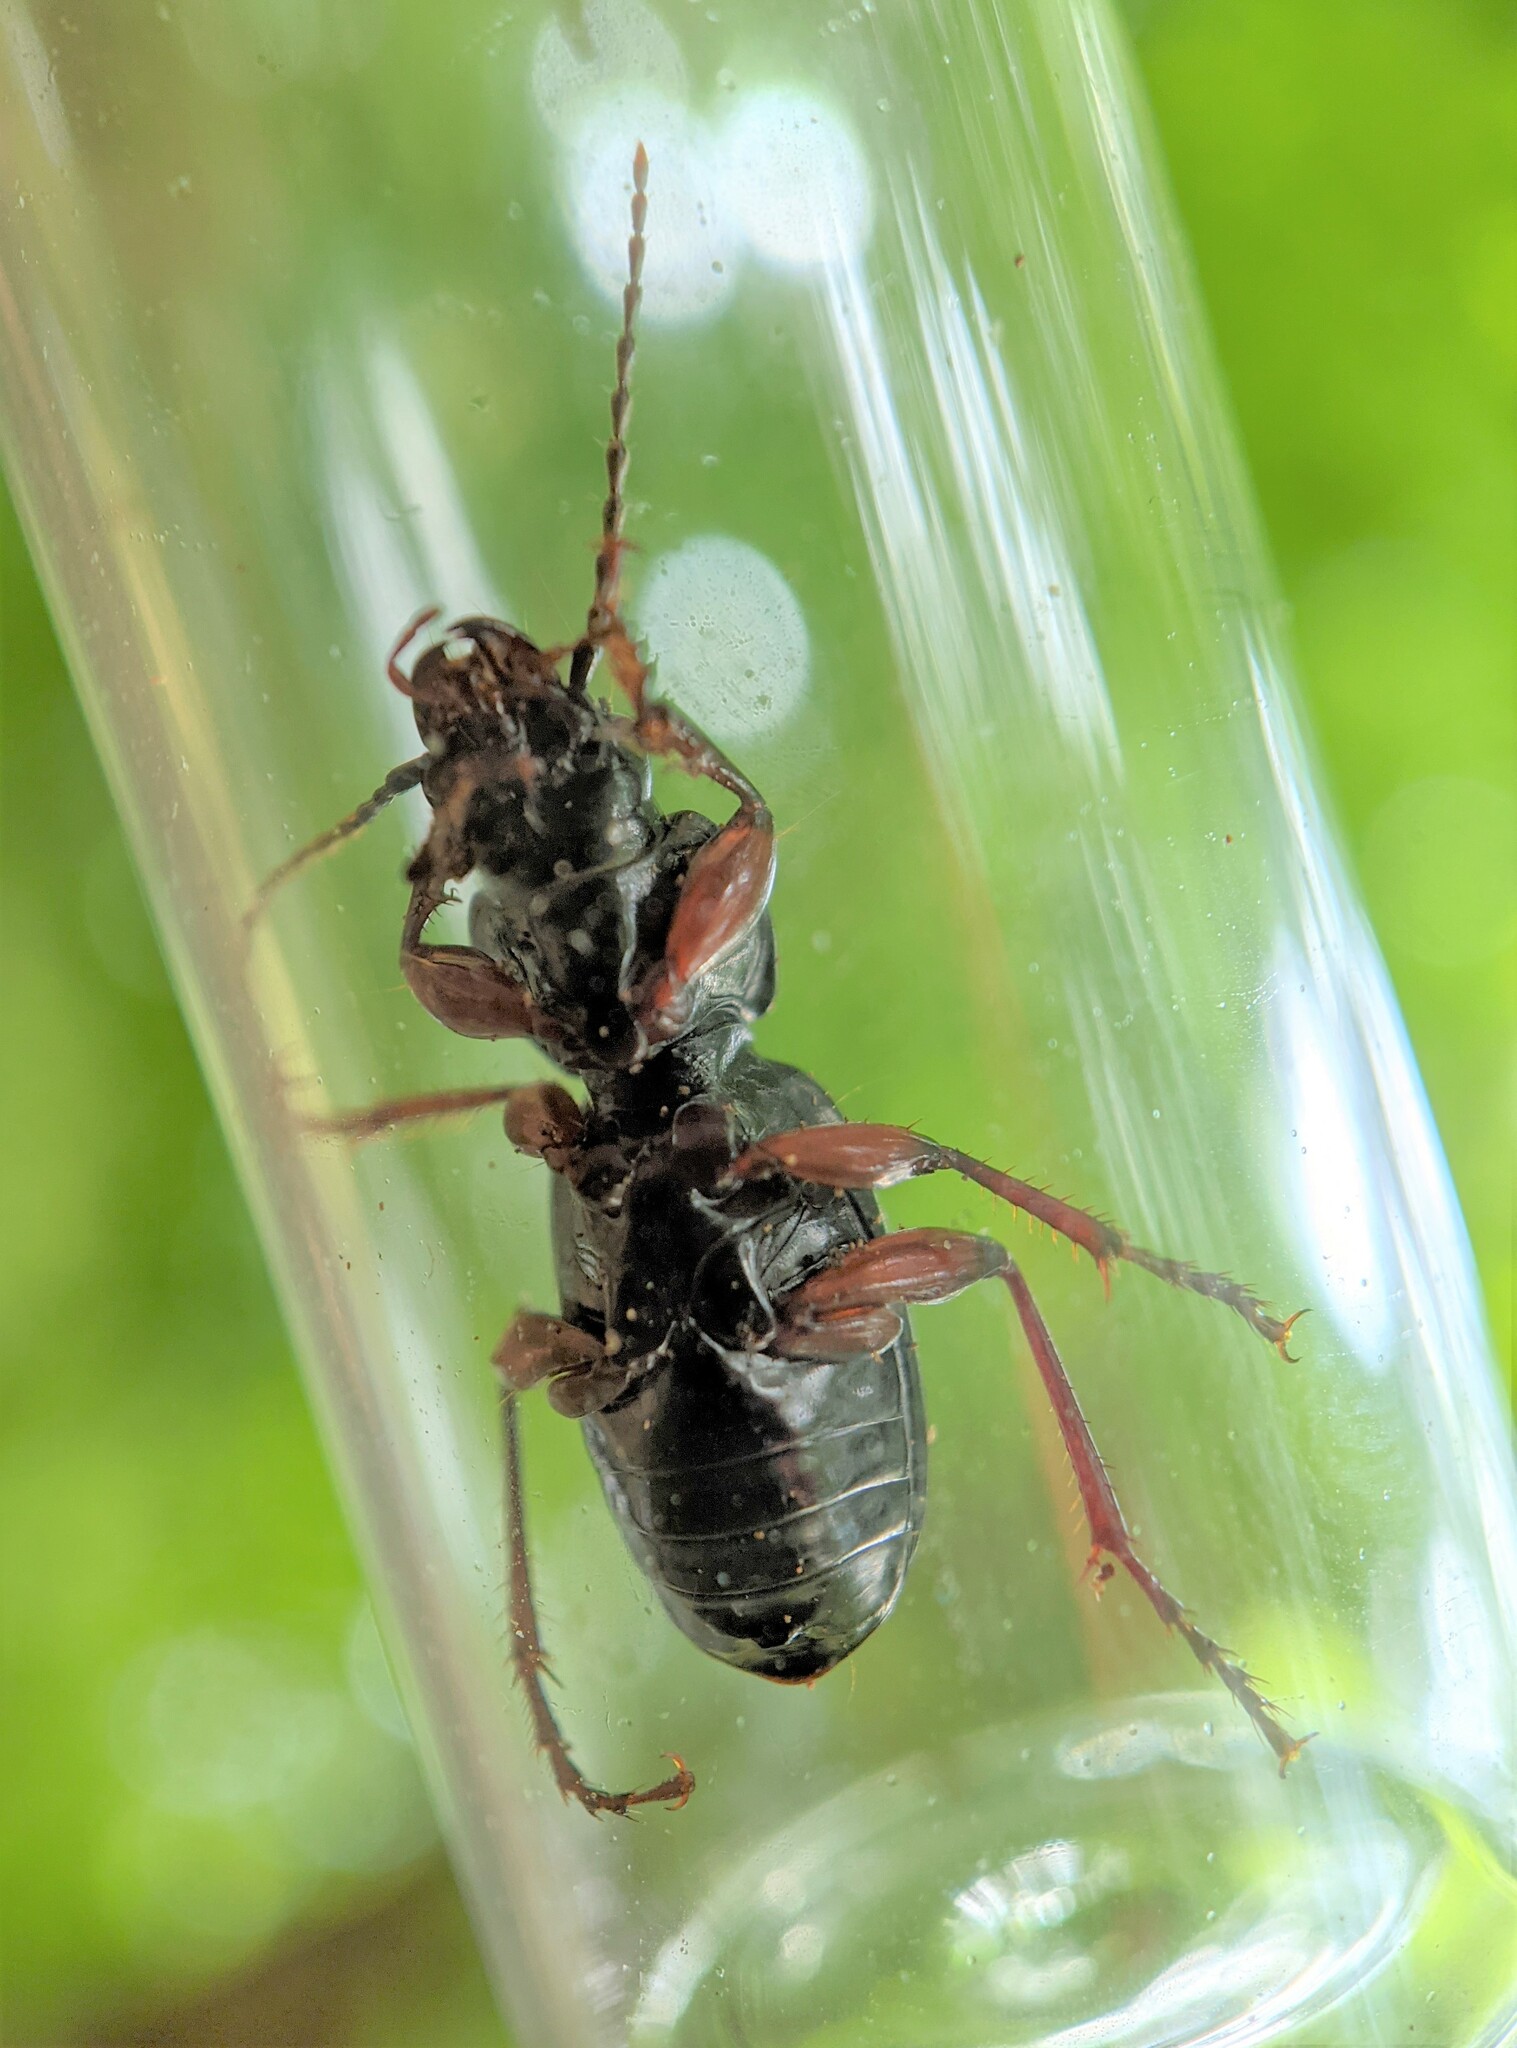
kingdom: Animalia
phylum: Arthropoda
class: Insecta
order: Coleoptera
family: Carabidae
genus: Pterostichus
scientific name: Pterostichus madidus
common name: Black clock
